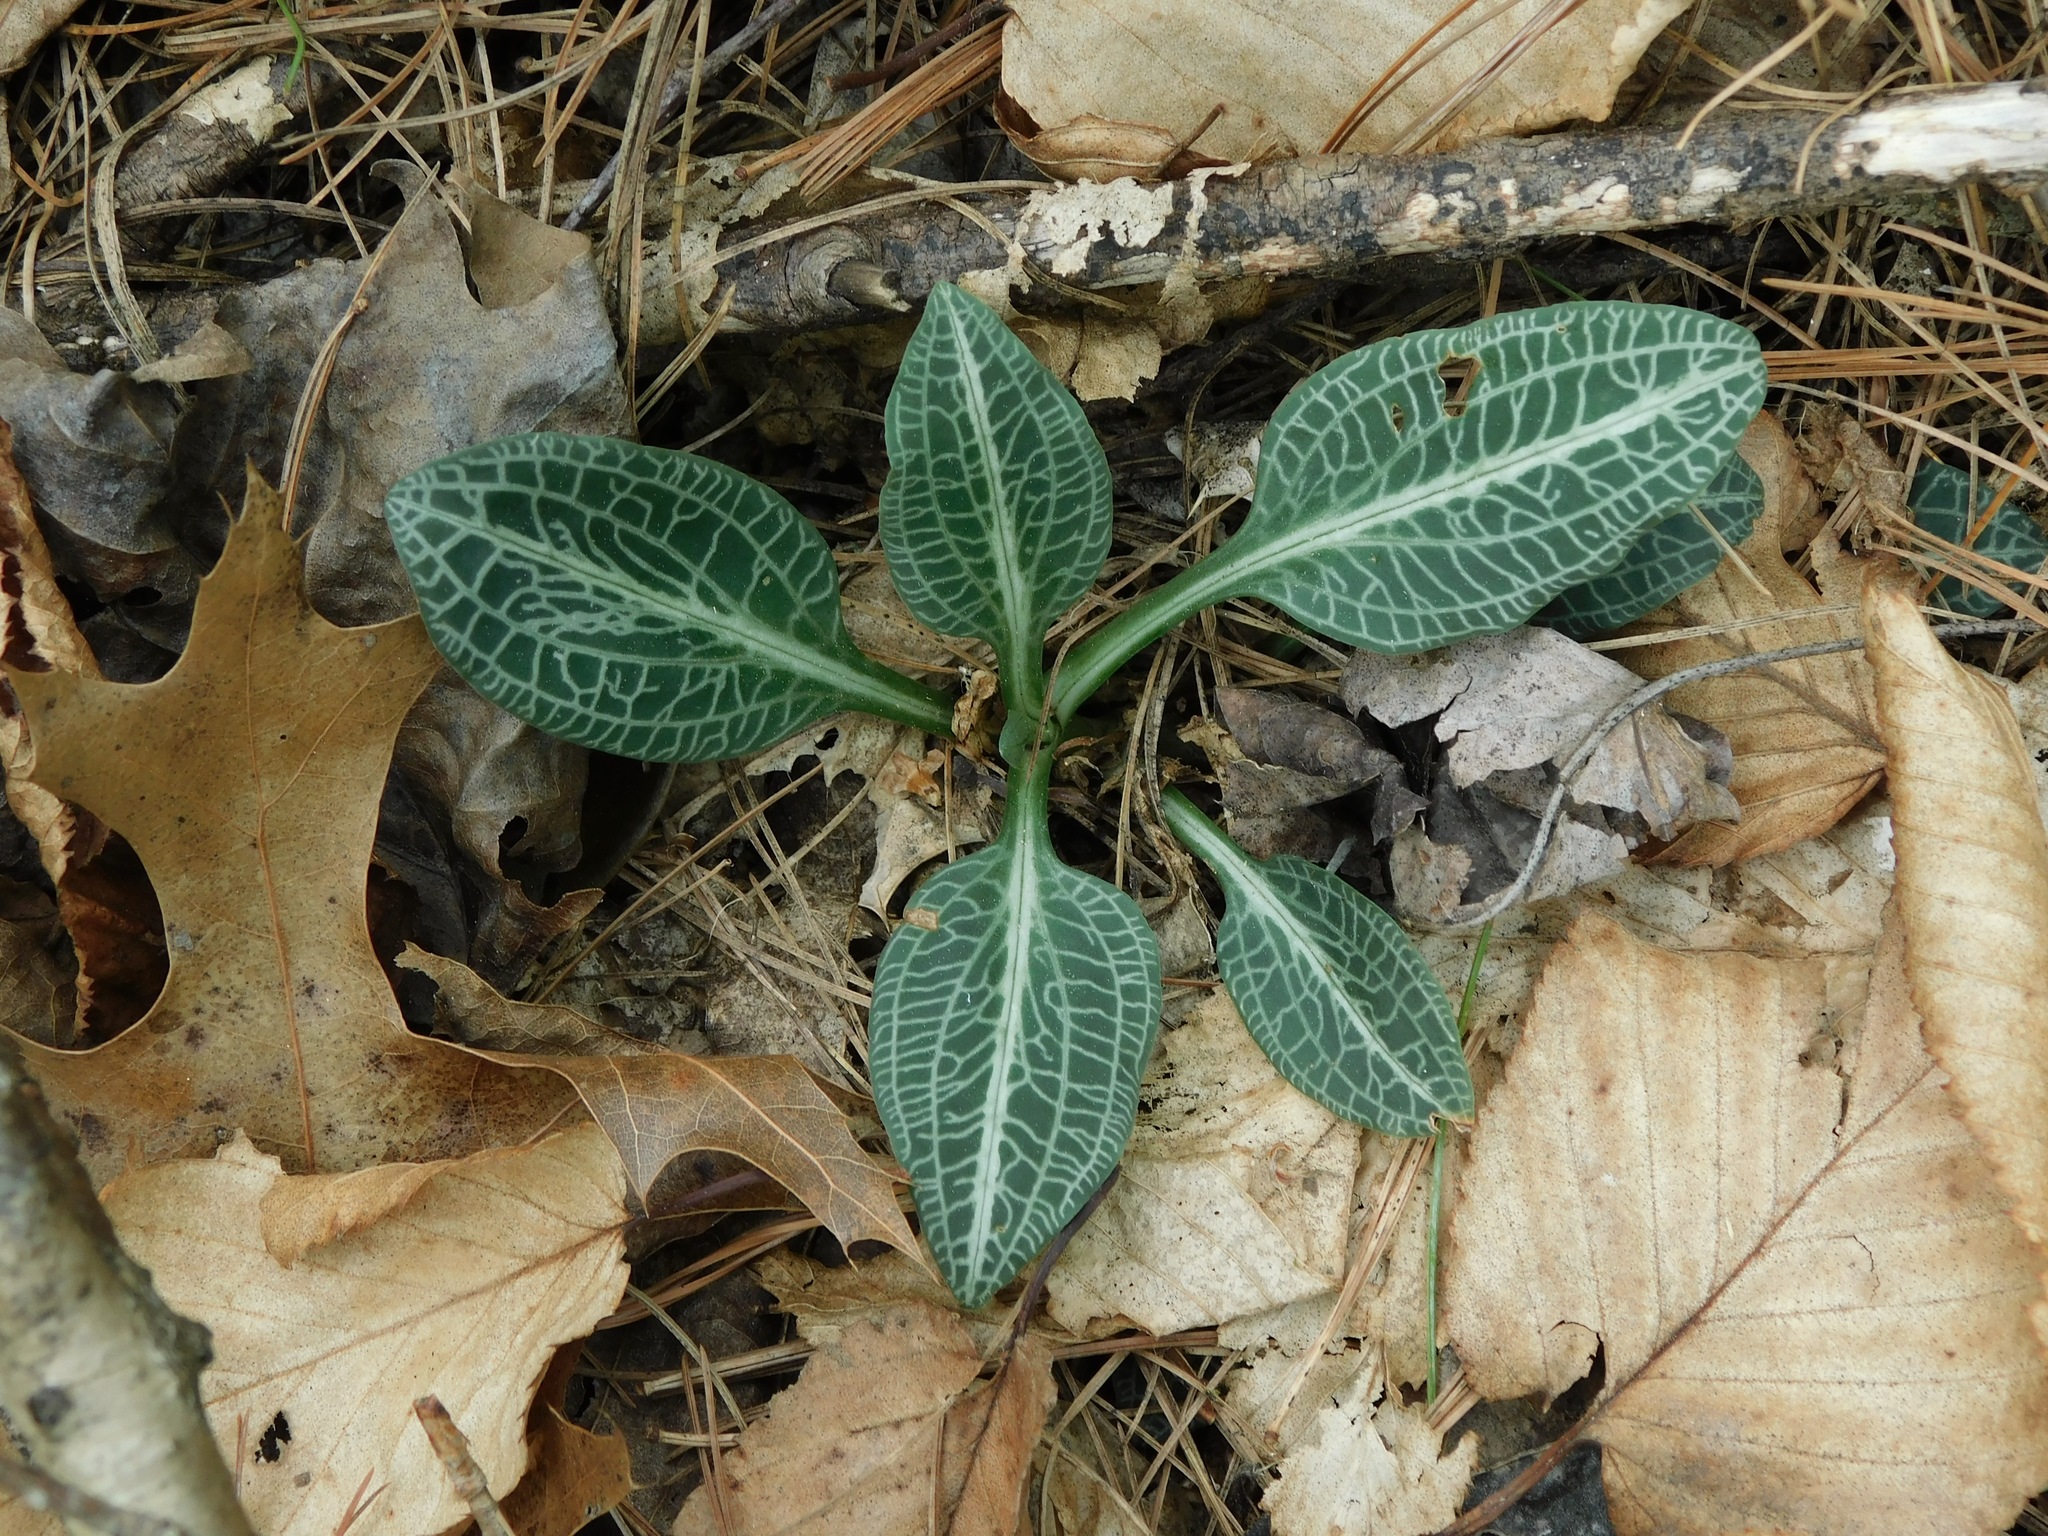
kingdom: Plantae
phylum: Tracheophyta
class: Liliopsida
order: Asparagales
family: Orchidaceae
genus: Goodyera
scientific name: Goodyera pubescens
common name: Downy rattlesnake-plantain
